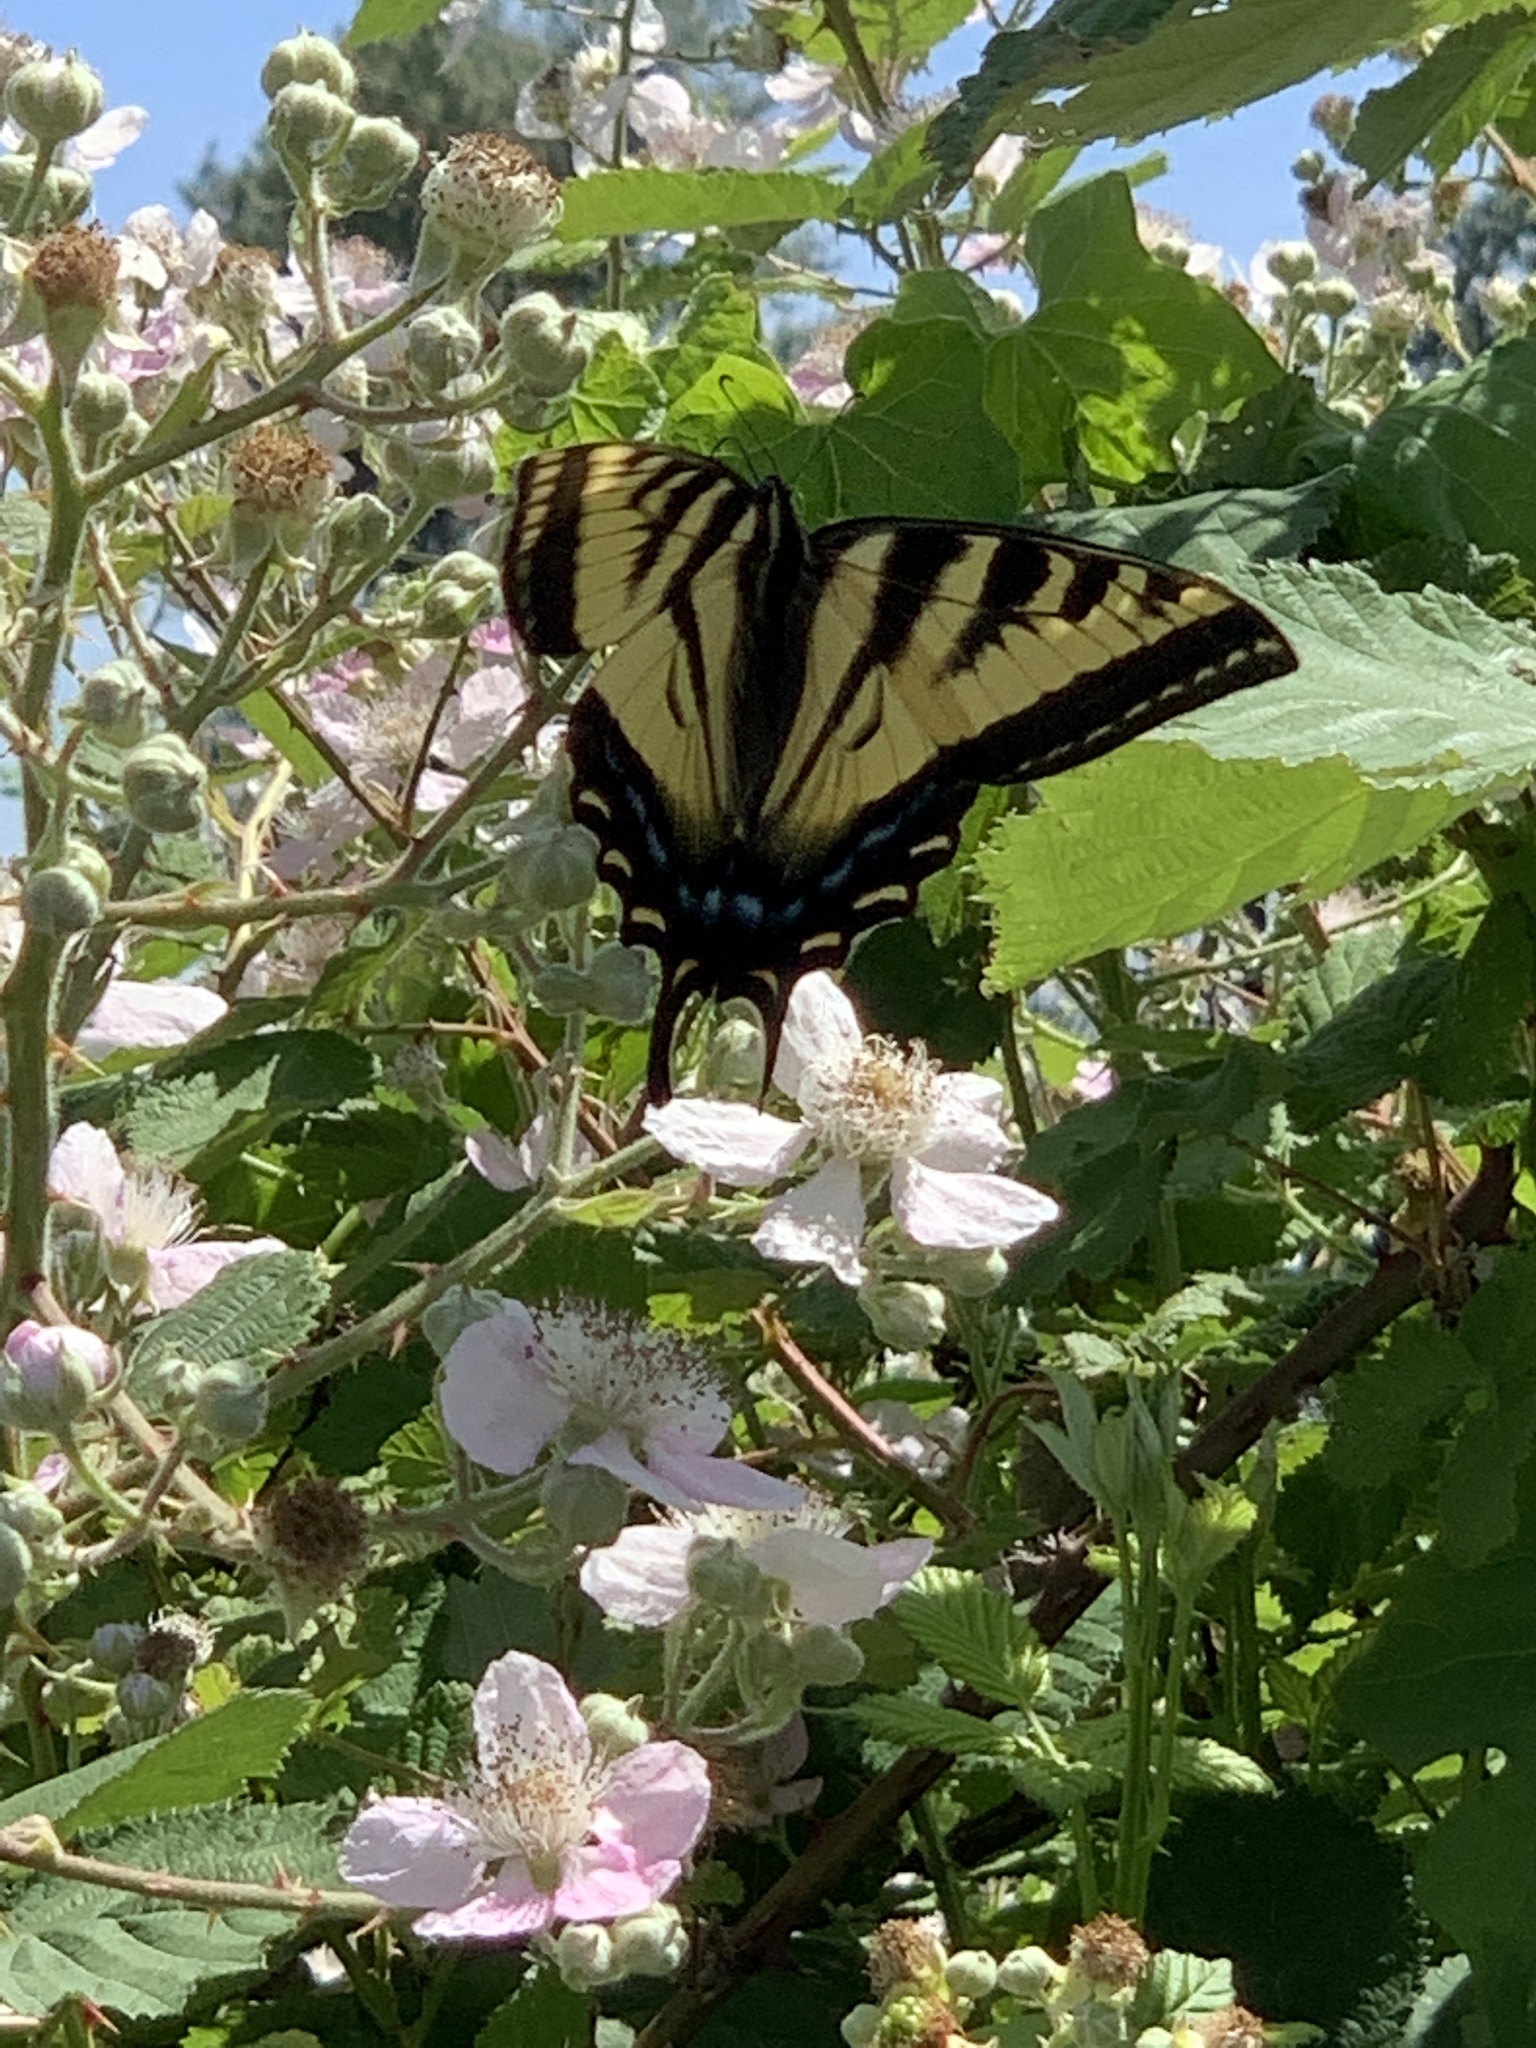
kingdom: Animalia
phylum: Arthropoda
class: Insecta
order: Lepidoptera
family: Papilionidae
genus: Papilio
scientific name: Papilio rutulus
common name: Western tiger swallowtail
